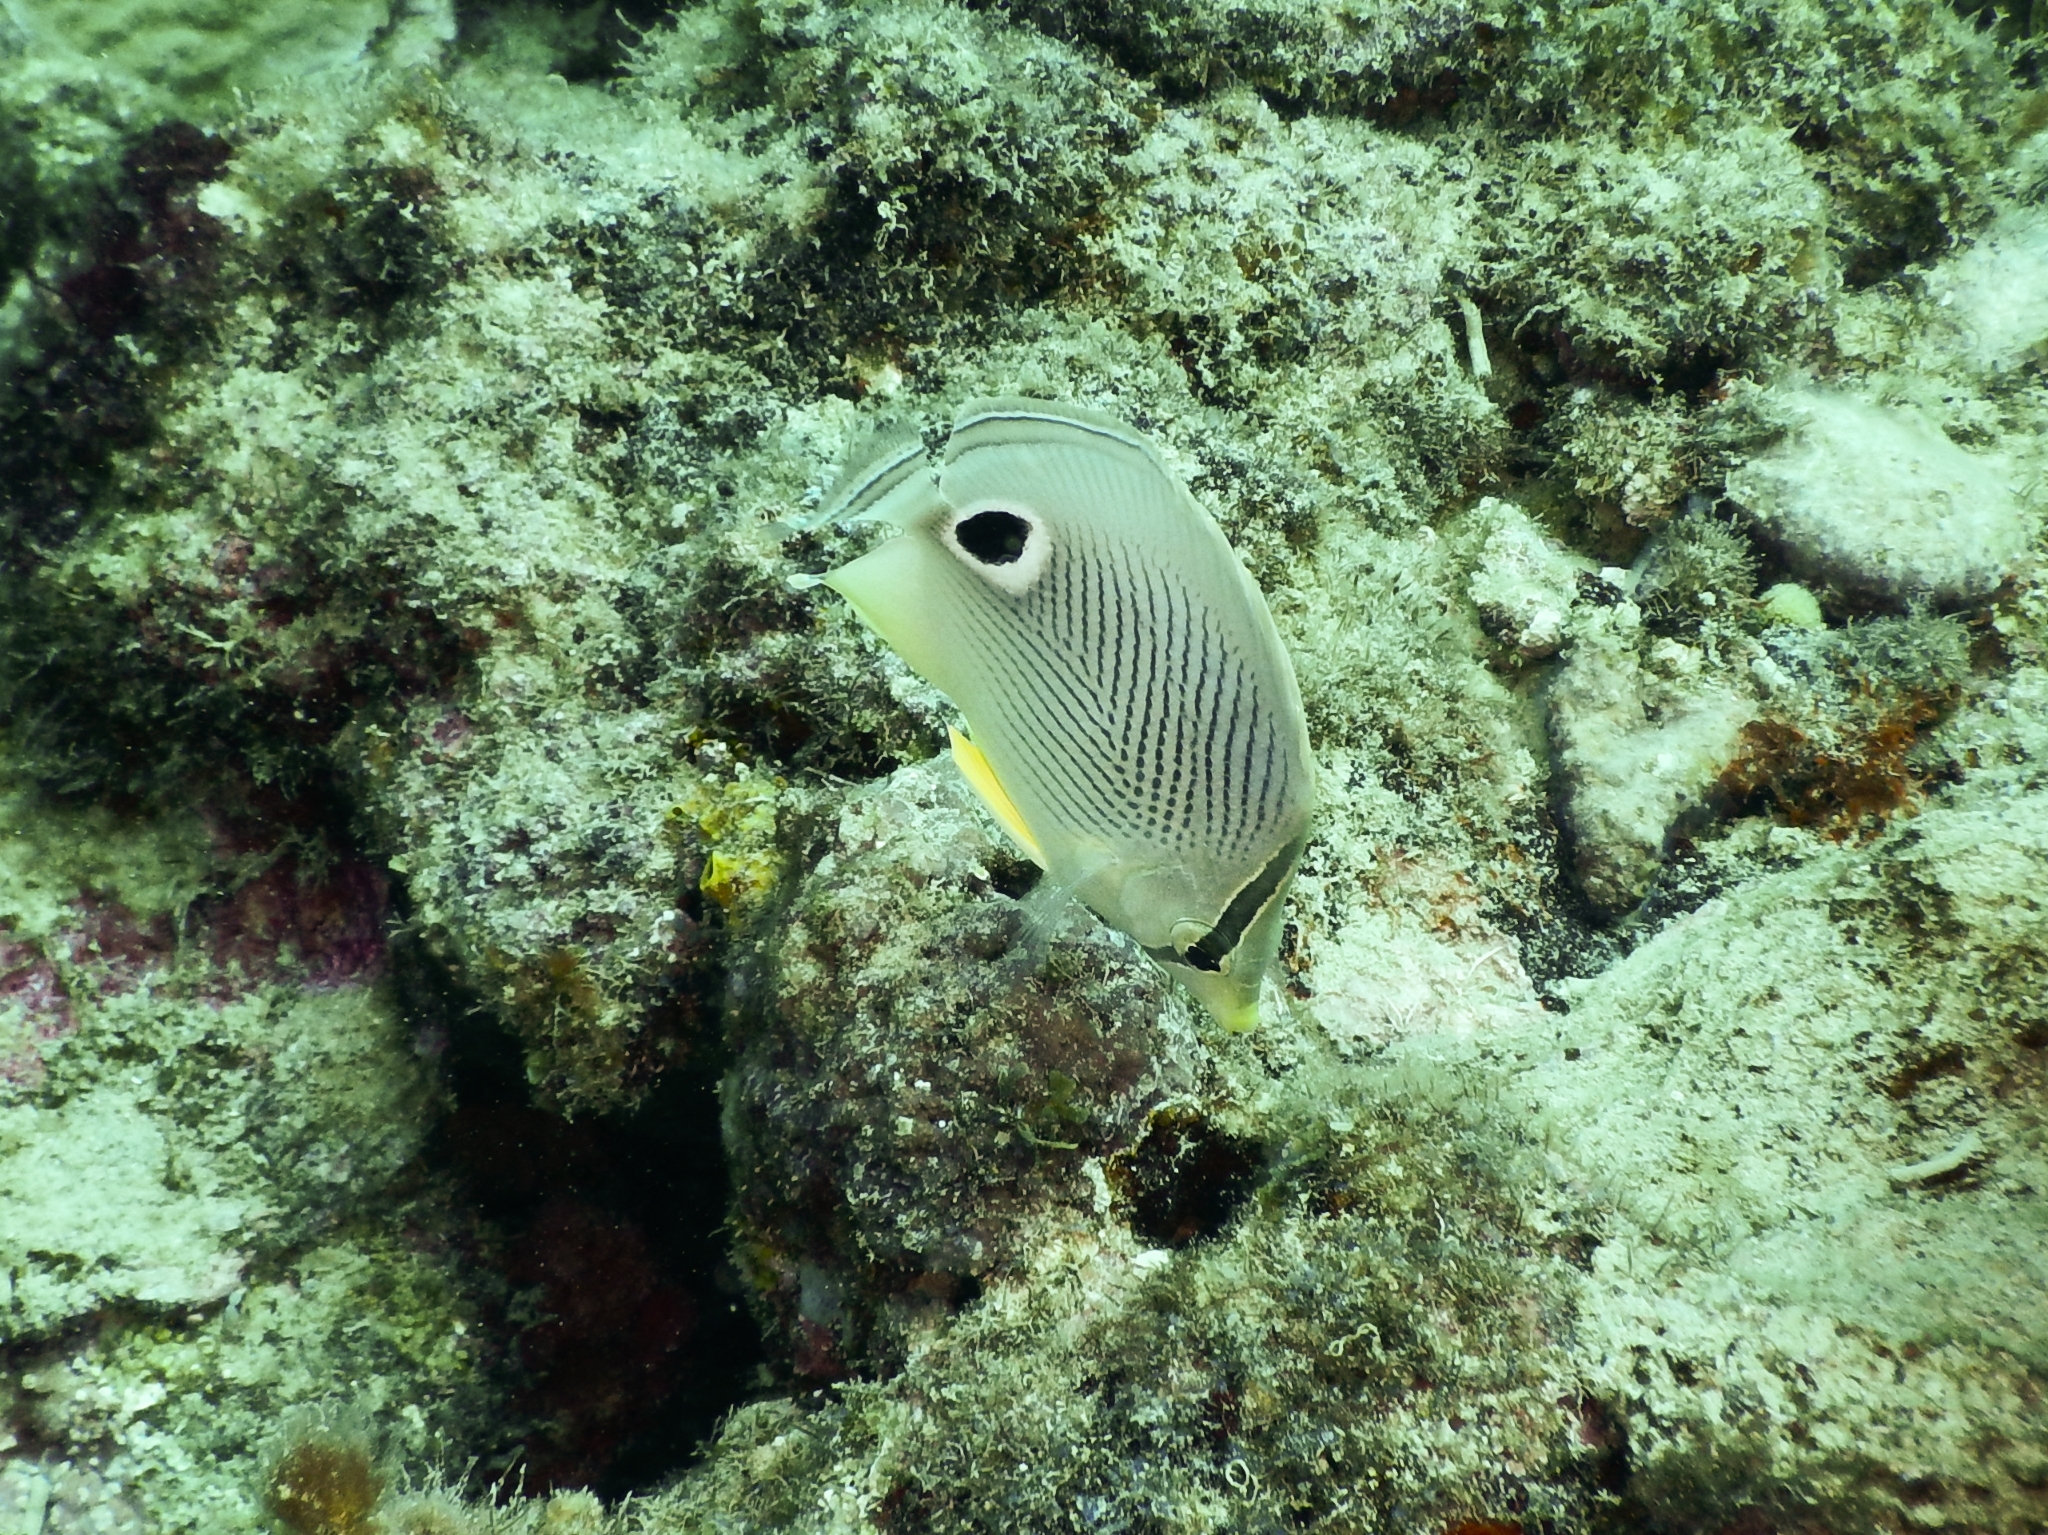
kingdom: Animalia
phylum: Chordata
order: Perciformes
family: Chaetodontidae
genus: Chaetodon
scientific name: Chaetodon capistratus
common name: Kete
